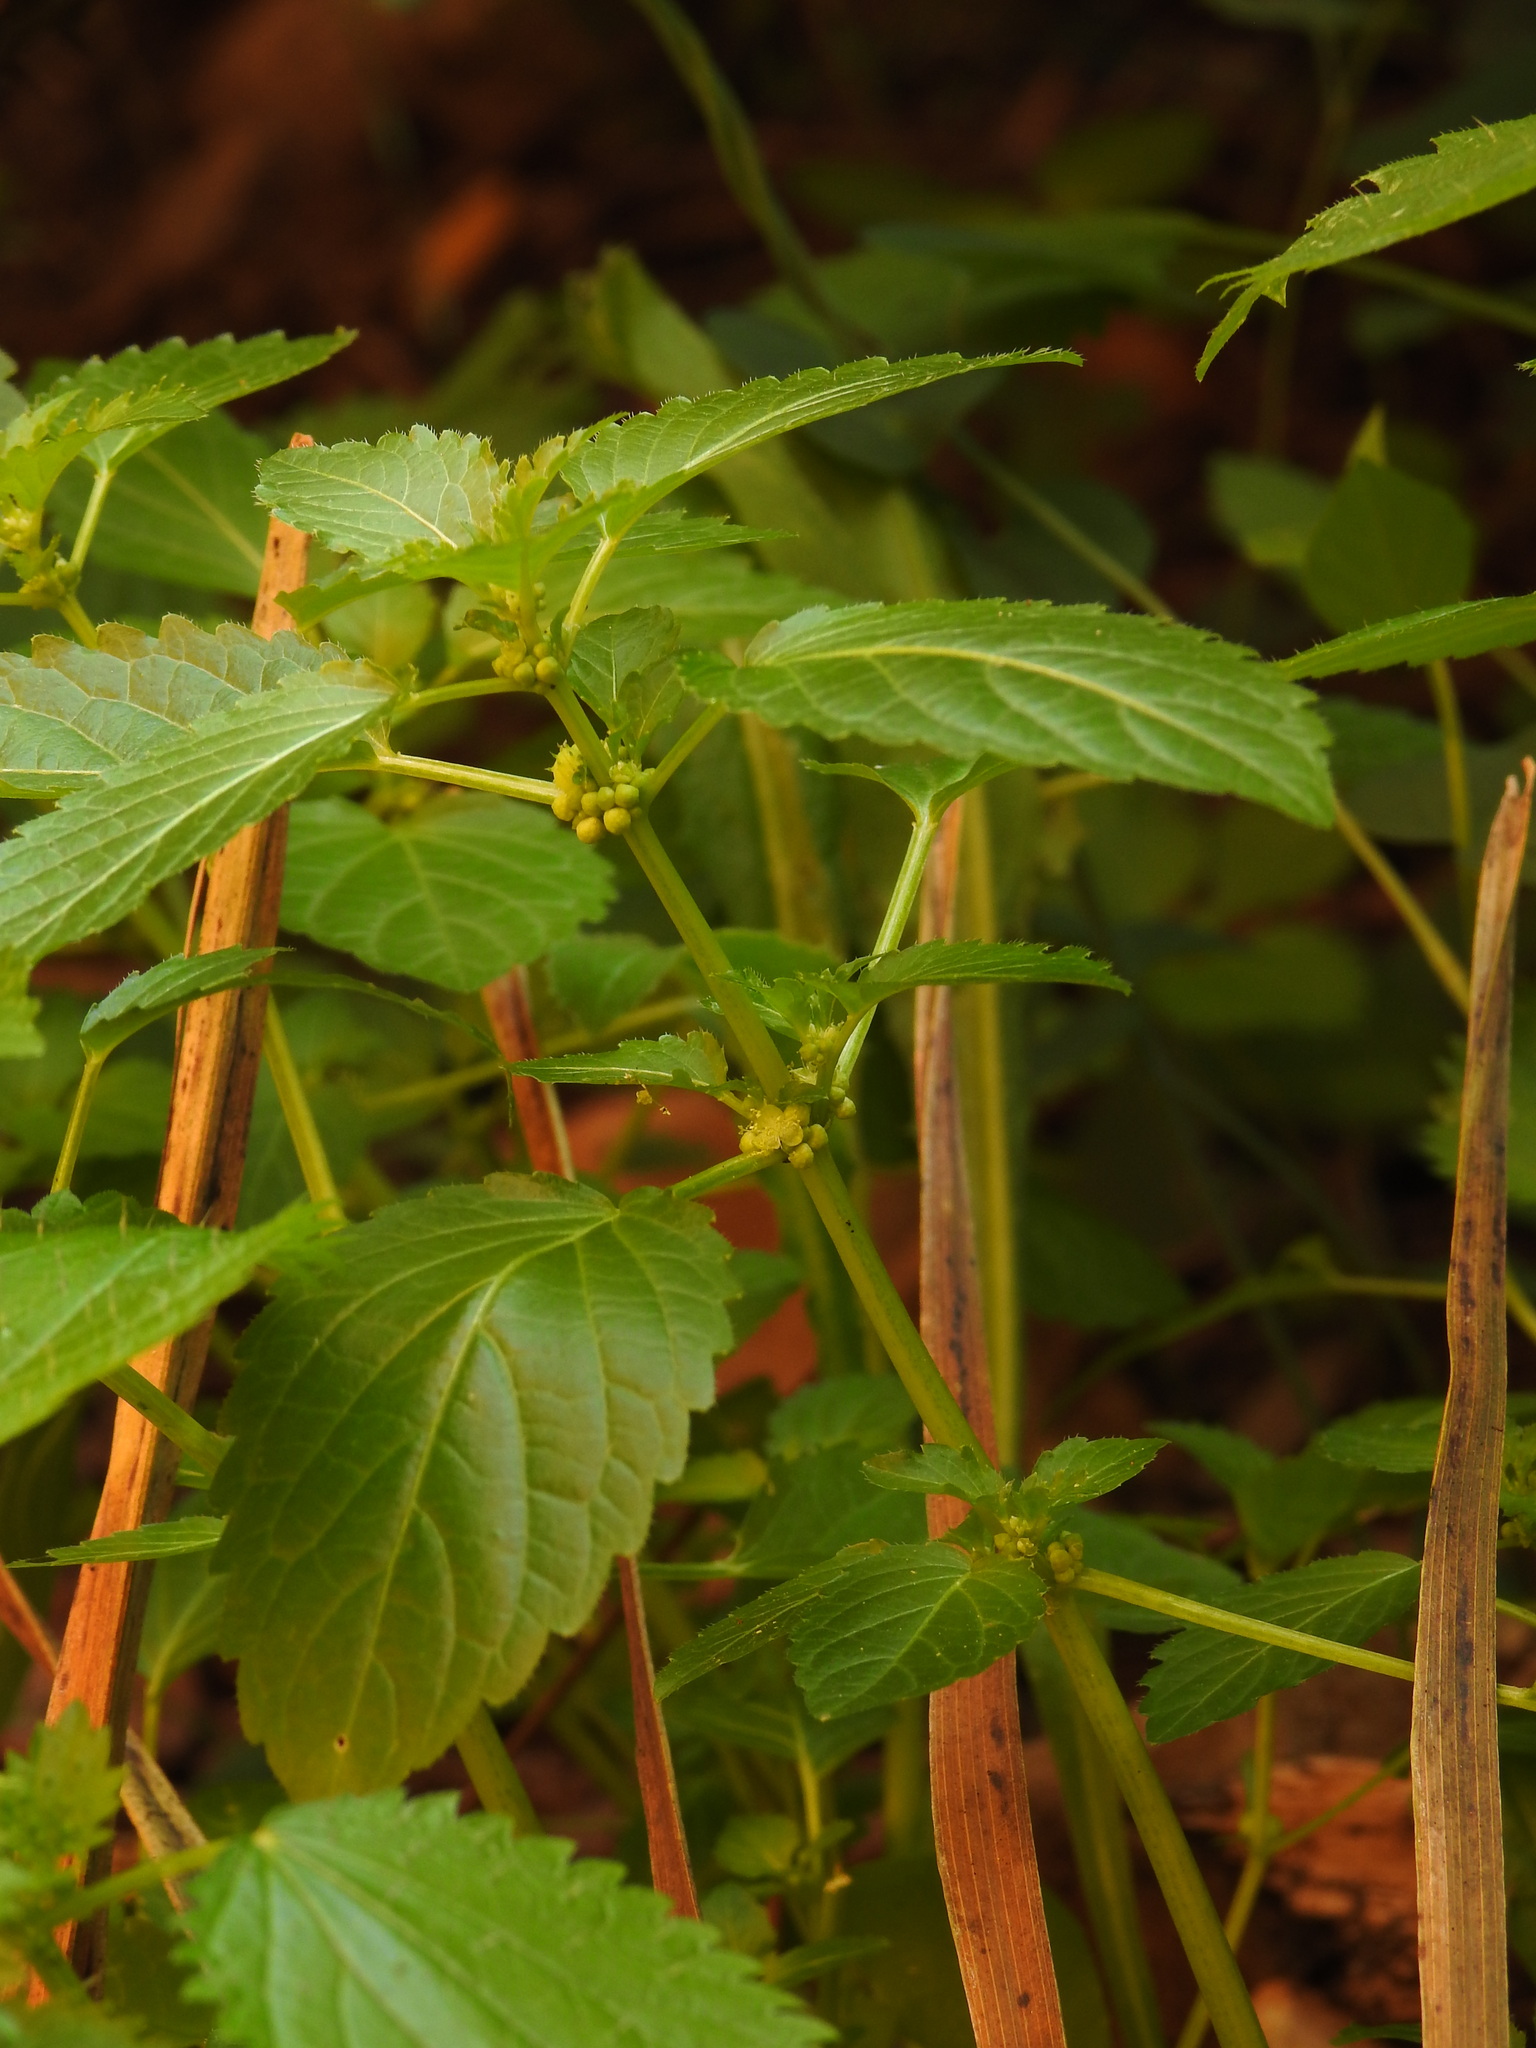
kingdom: Plantae
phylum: Tracheophyta
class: Magnoliopsida
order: Malpighiales
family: Euphorbiaceae
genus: Mercurialis
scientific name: Mercurialis annua
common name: Annual mercury
